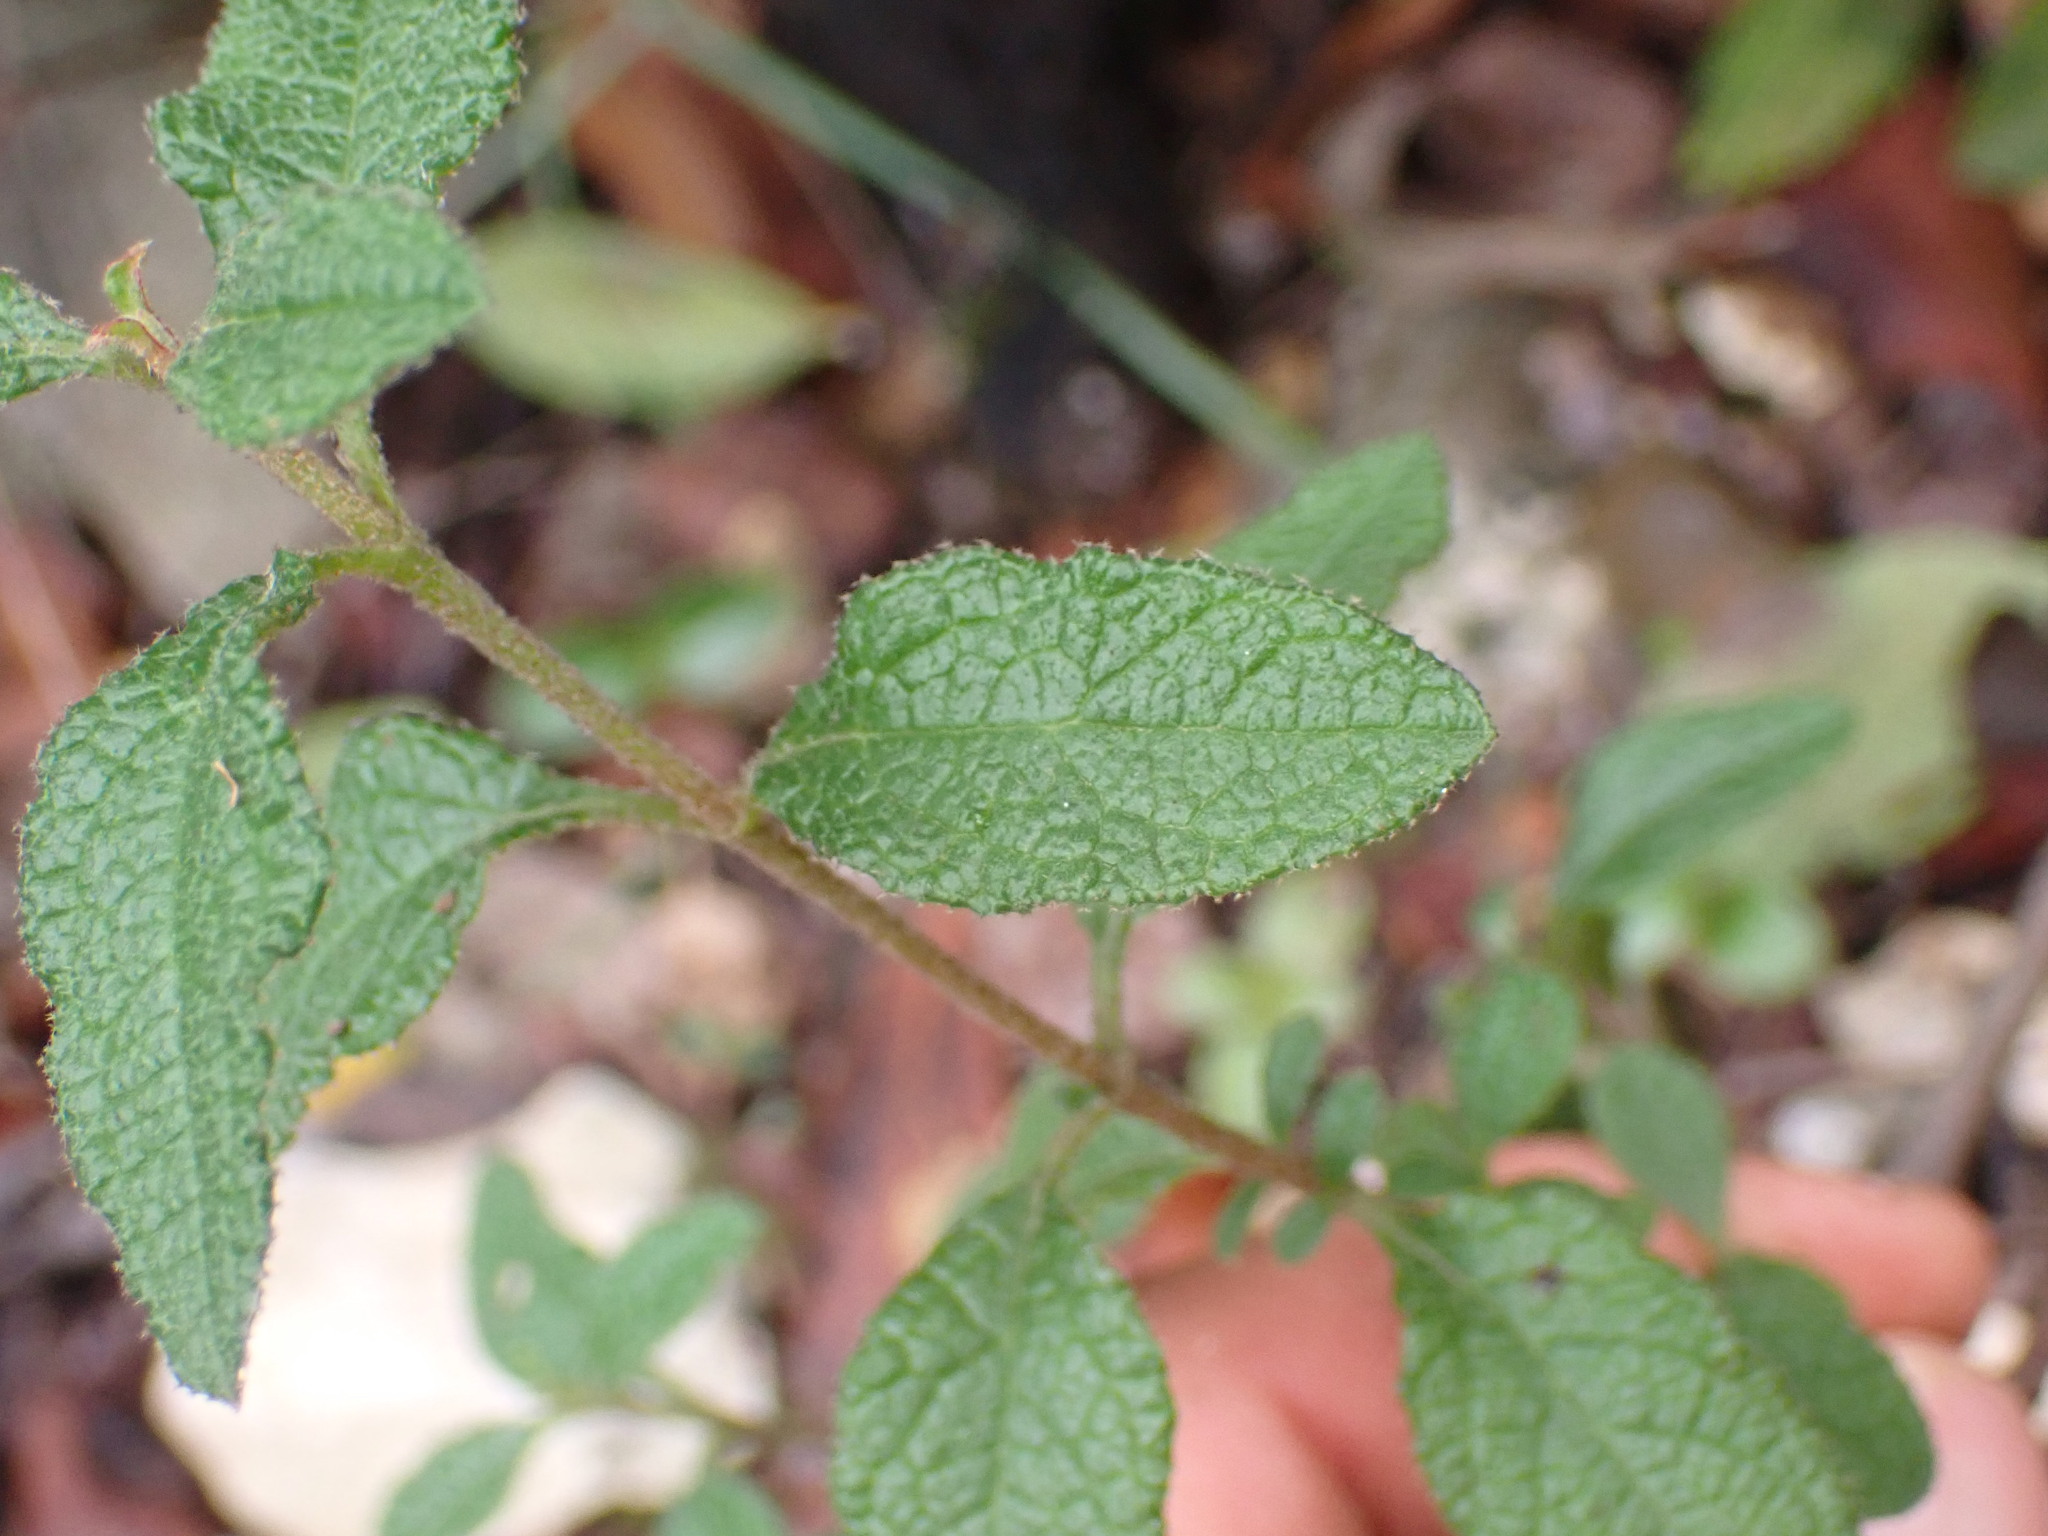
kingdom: Plantae
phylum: Tracheophyta
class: Magnoliopsida
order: Malvales
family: Cistaceae
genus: Cistus
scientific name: Cistus salviifolius
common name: Salvia cistus
